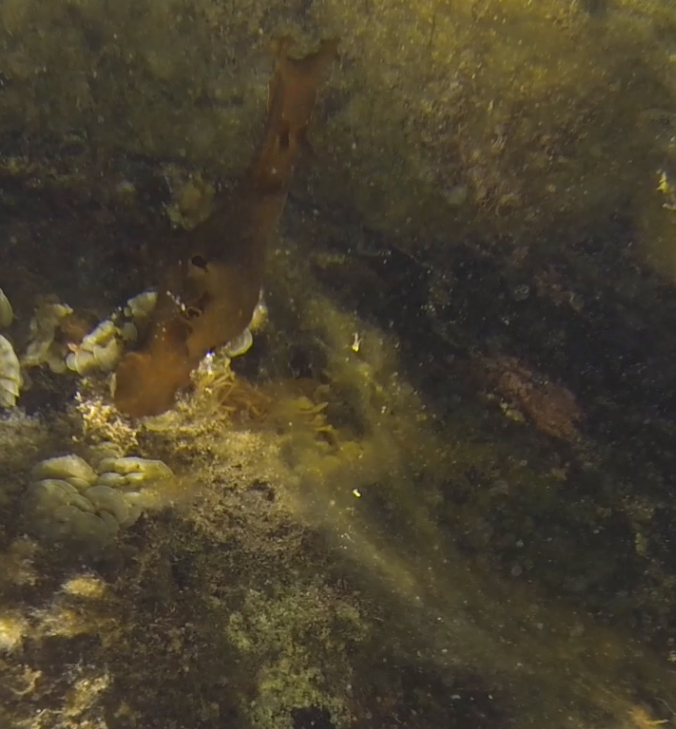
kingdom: Animalia
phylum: Mollusca
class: Gastropoda
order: Aplysiida
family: Aplysiidae
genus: Aplysia
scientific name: Aplysia juliana
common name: Walking sea hare
